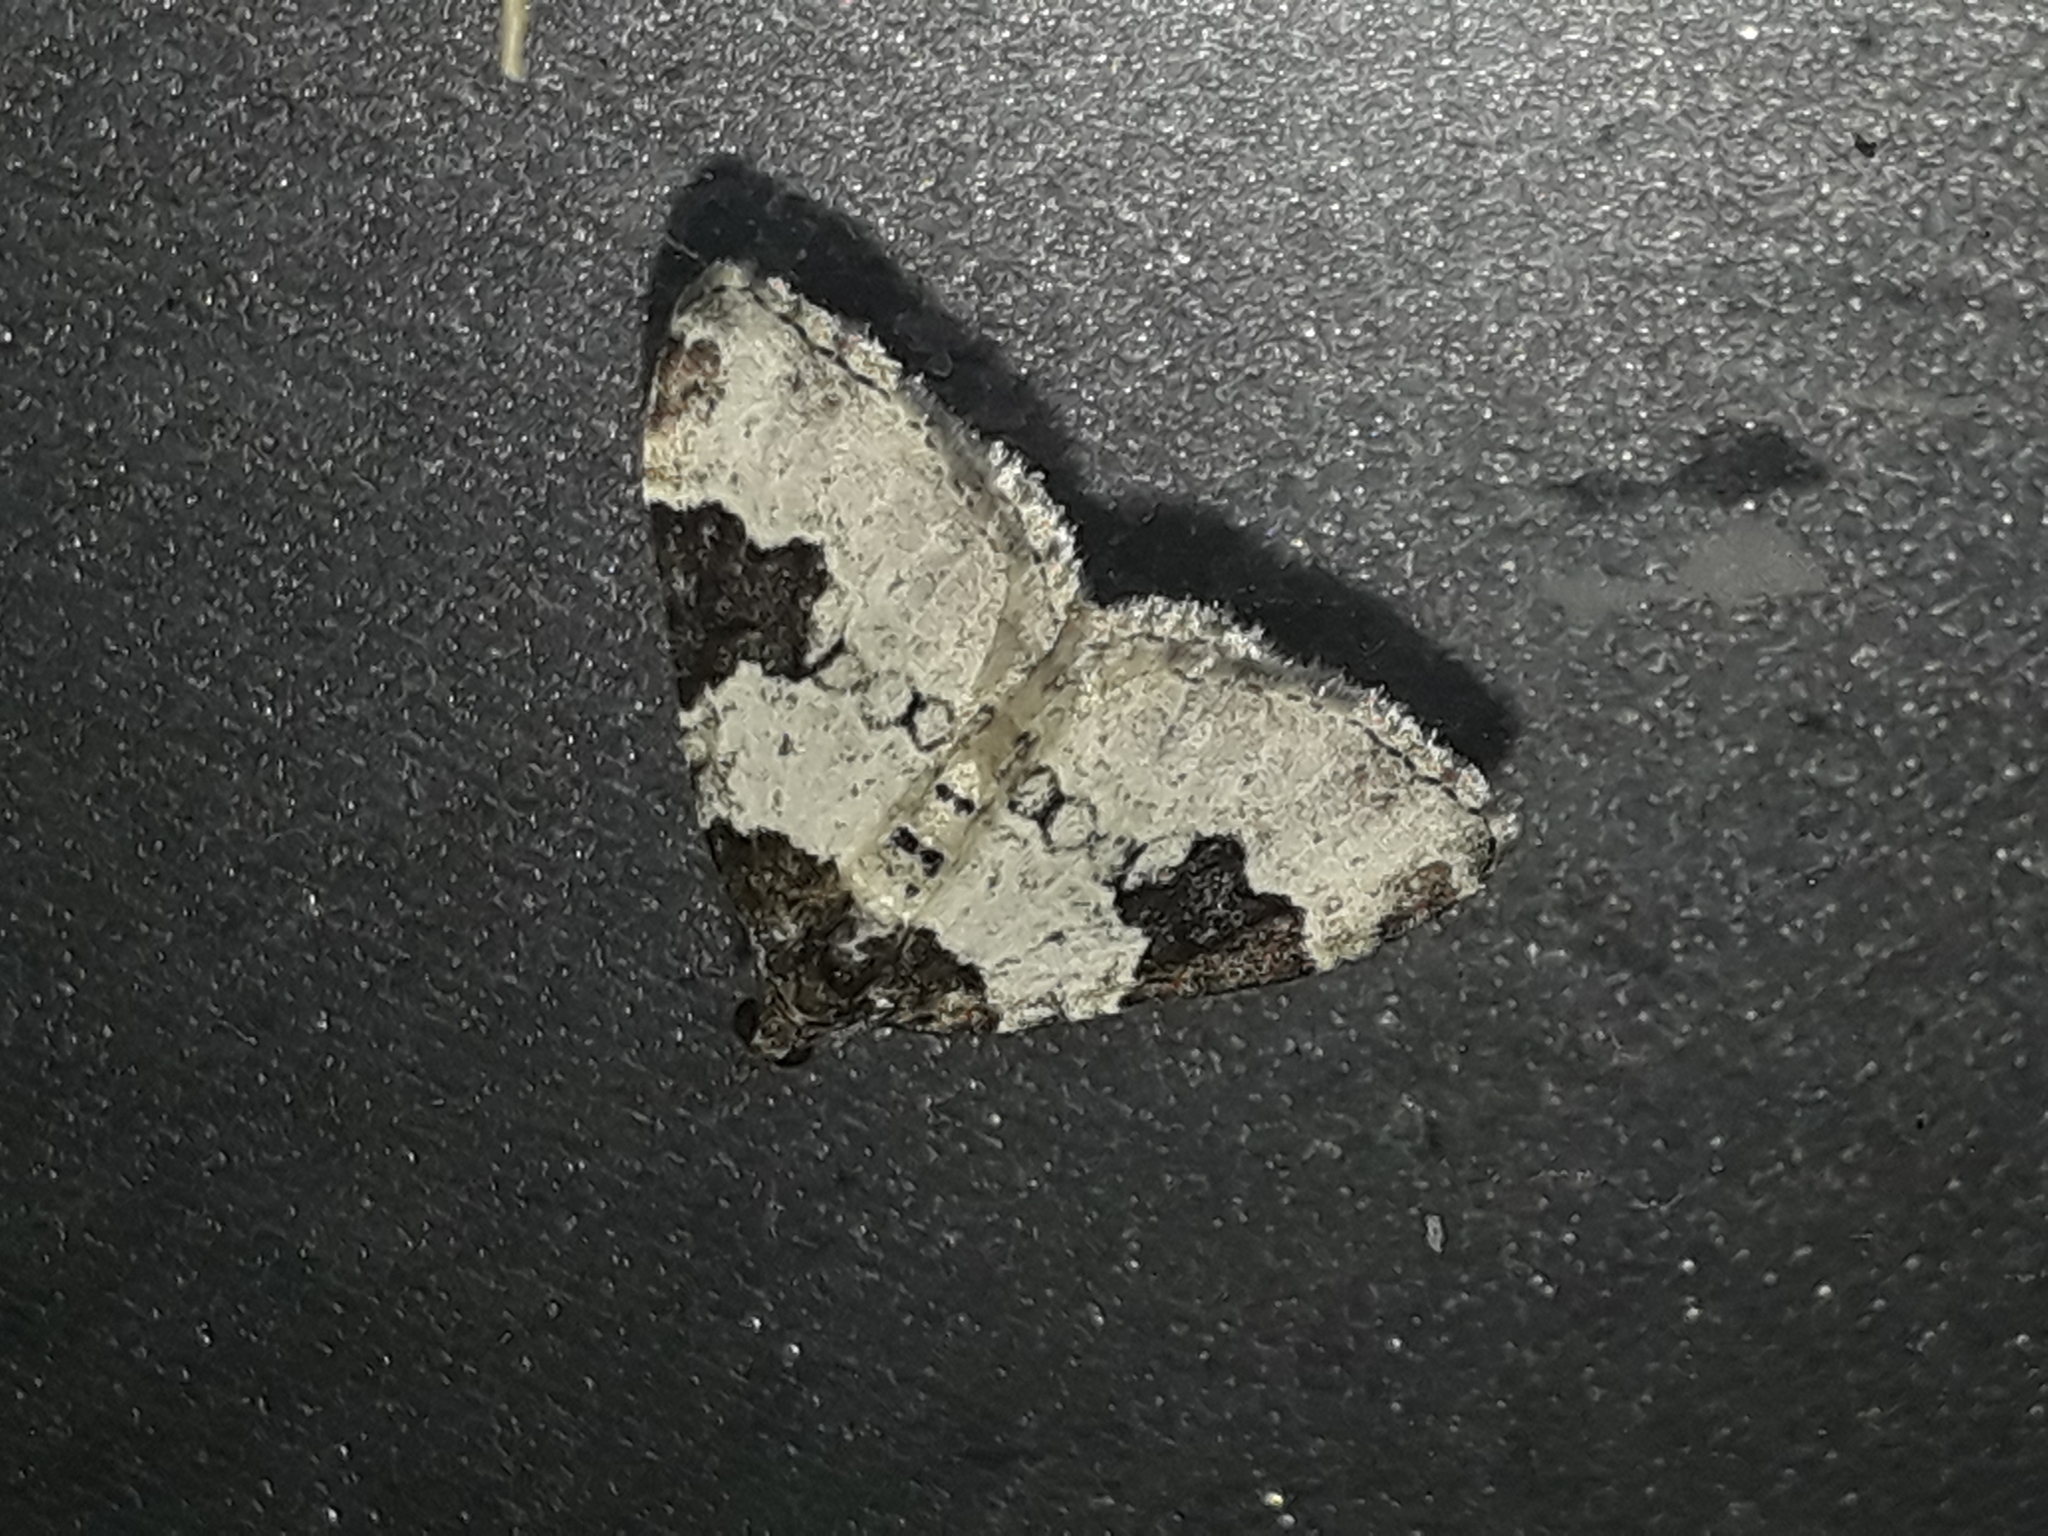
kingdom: Animalia
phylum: Arthropoda
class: Insecta
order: Lepidoptera
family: Geometridae
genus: Xanthorhoe
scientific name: Xanthorhoe fluctuata
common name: Garden carpet
